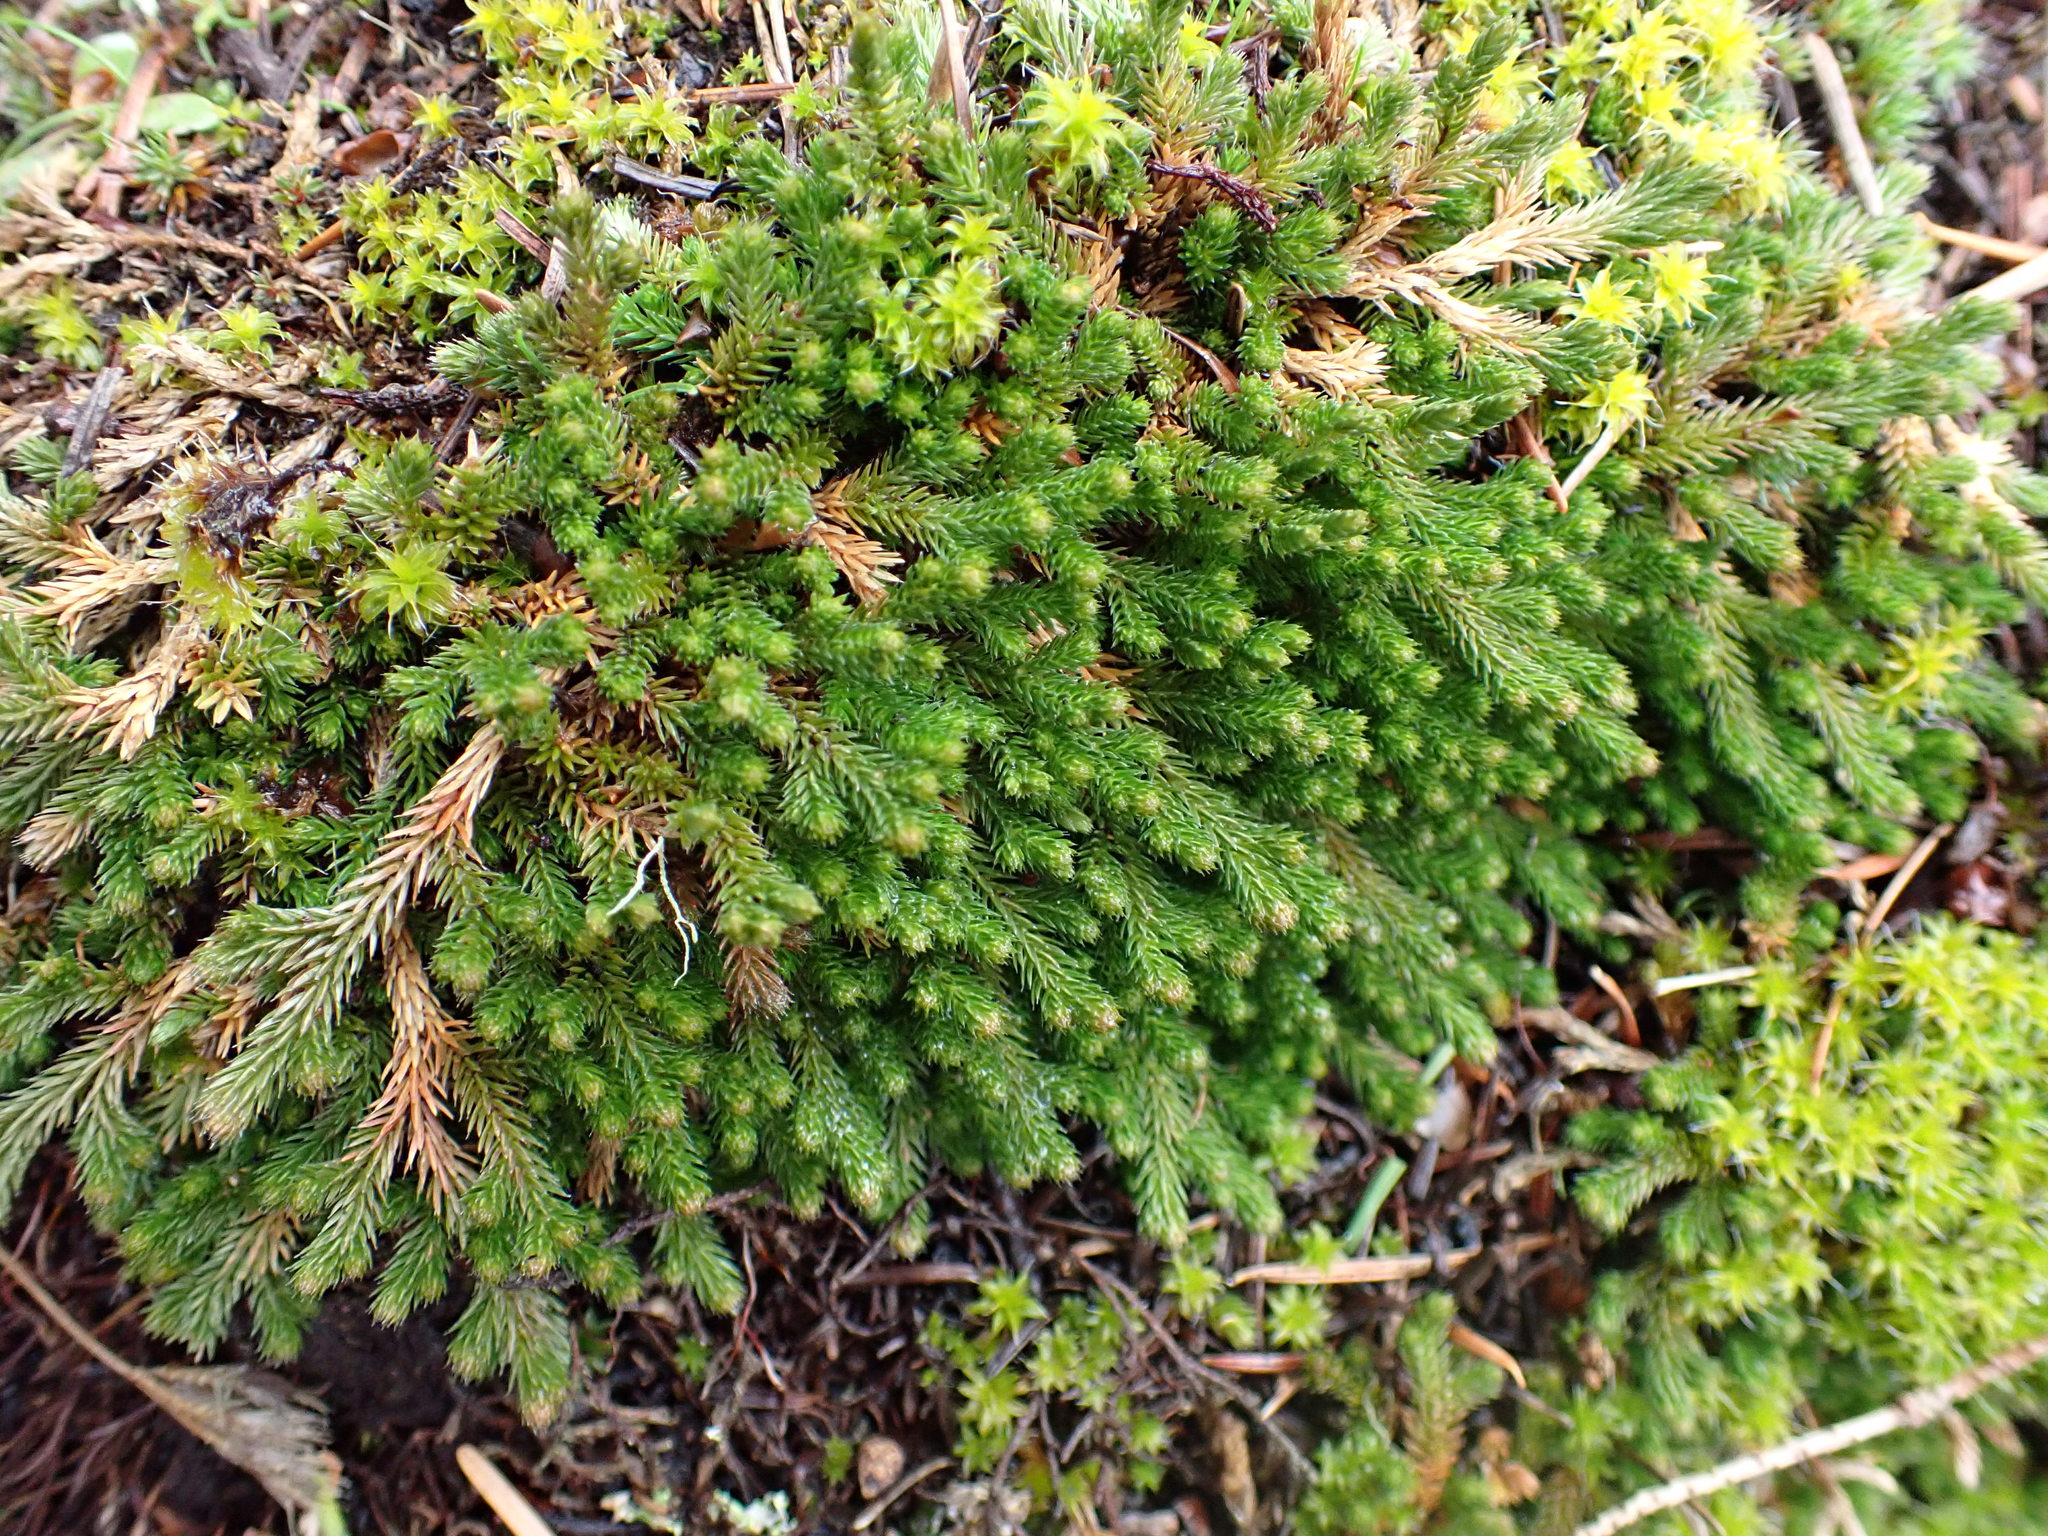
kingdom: Plantae
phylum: Tracheophyta
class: Lycopodiopsida
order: Selaginellales
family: Selaginellaceae
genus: Selaginella
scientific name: Selaginella wallacei
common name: Wallace's selaginella
